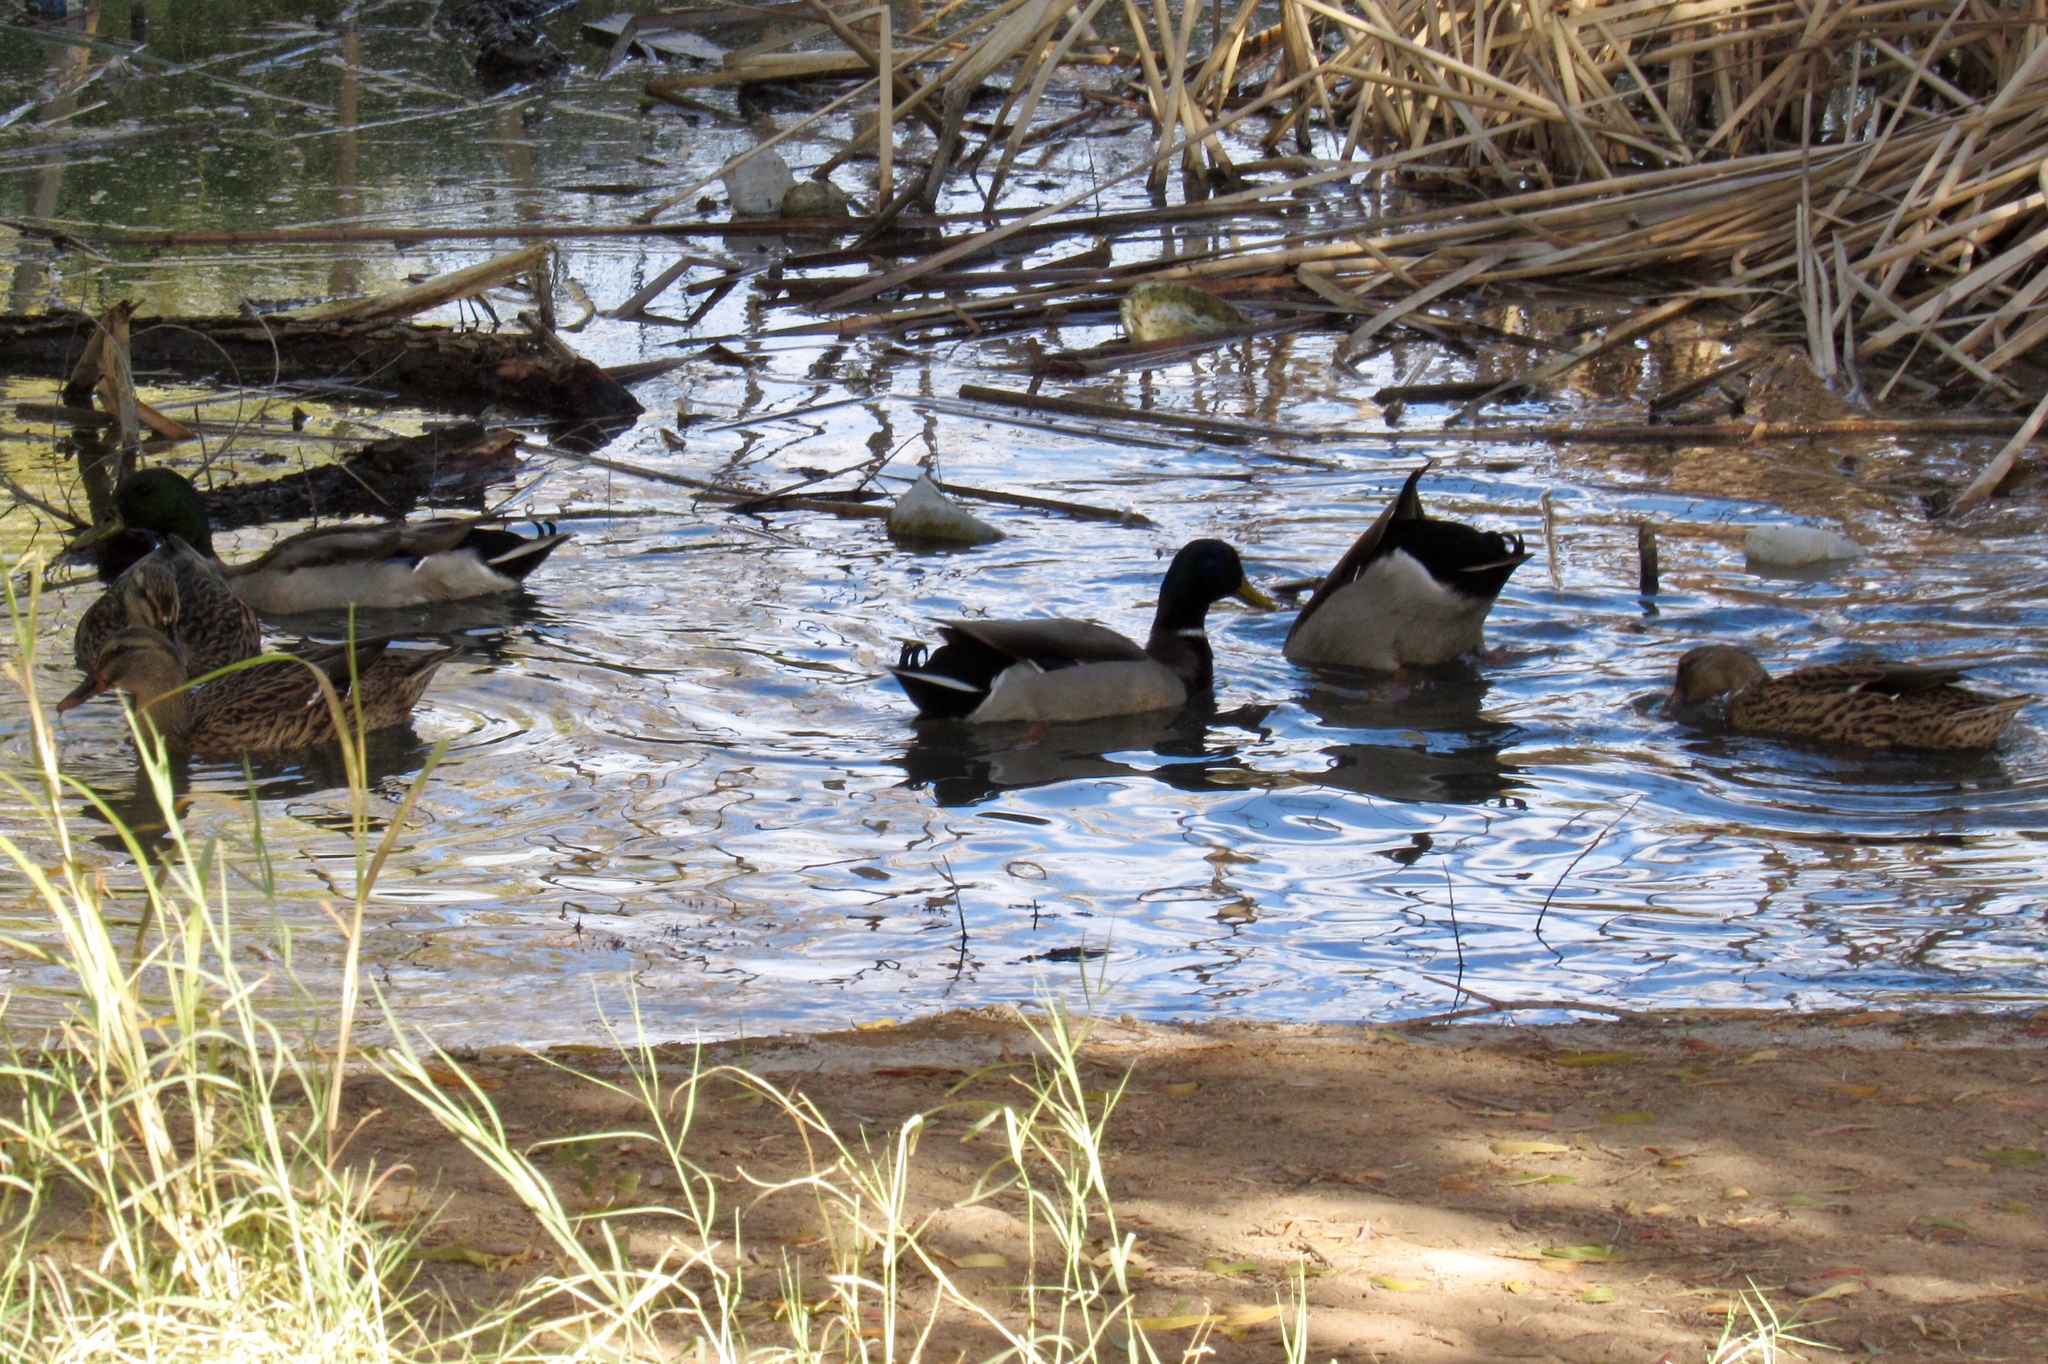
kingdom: Animalia
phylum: Chordata
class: Aves
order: Anseriformes
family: Anatidae
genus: Anas
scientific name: Anas platyrhynchos
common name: Mallard
